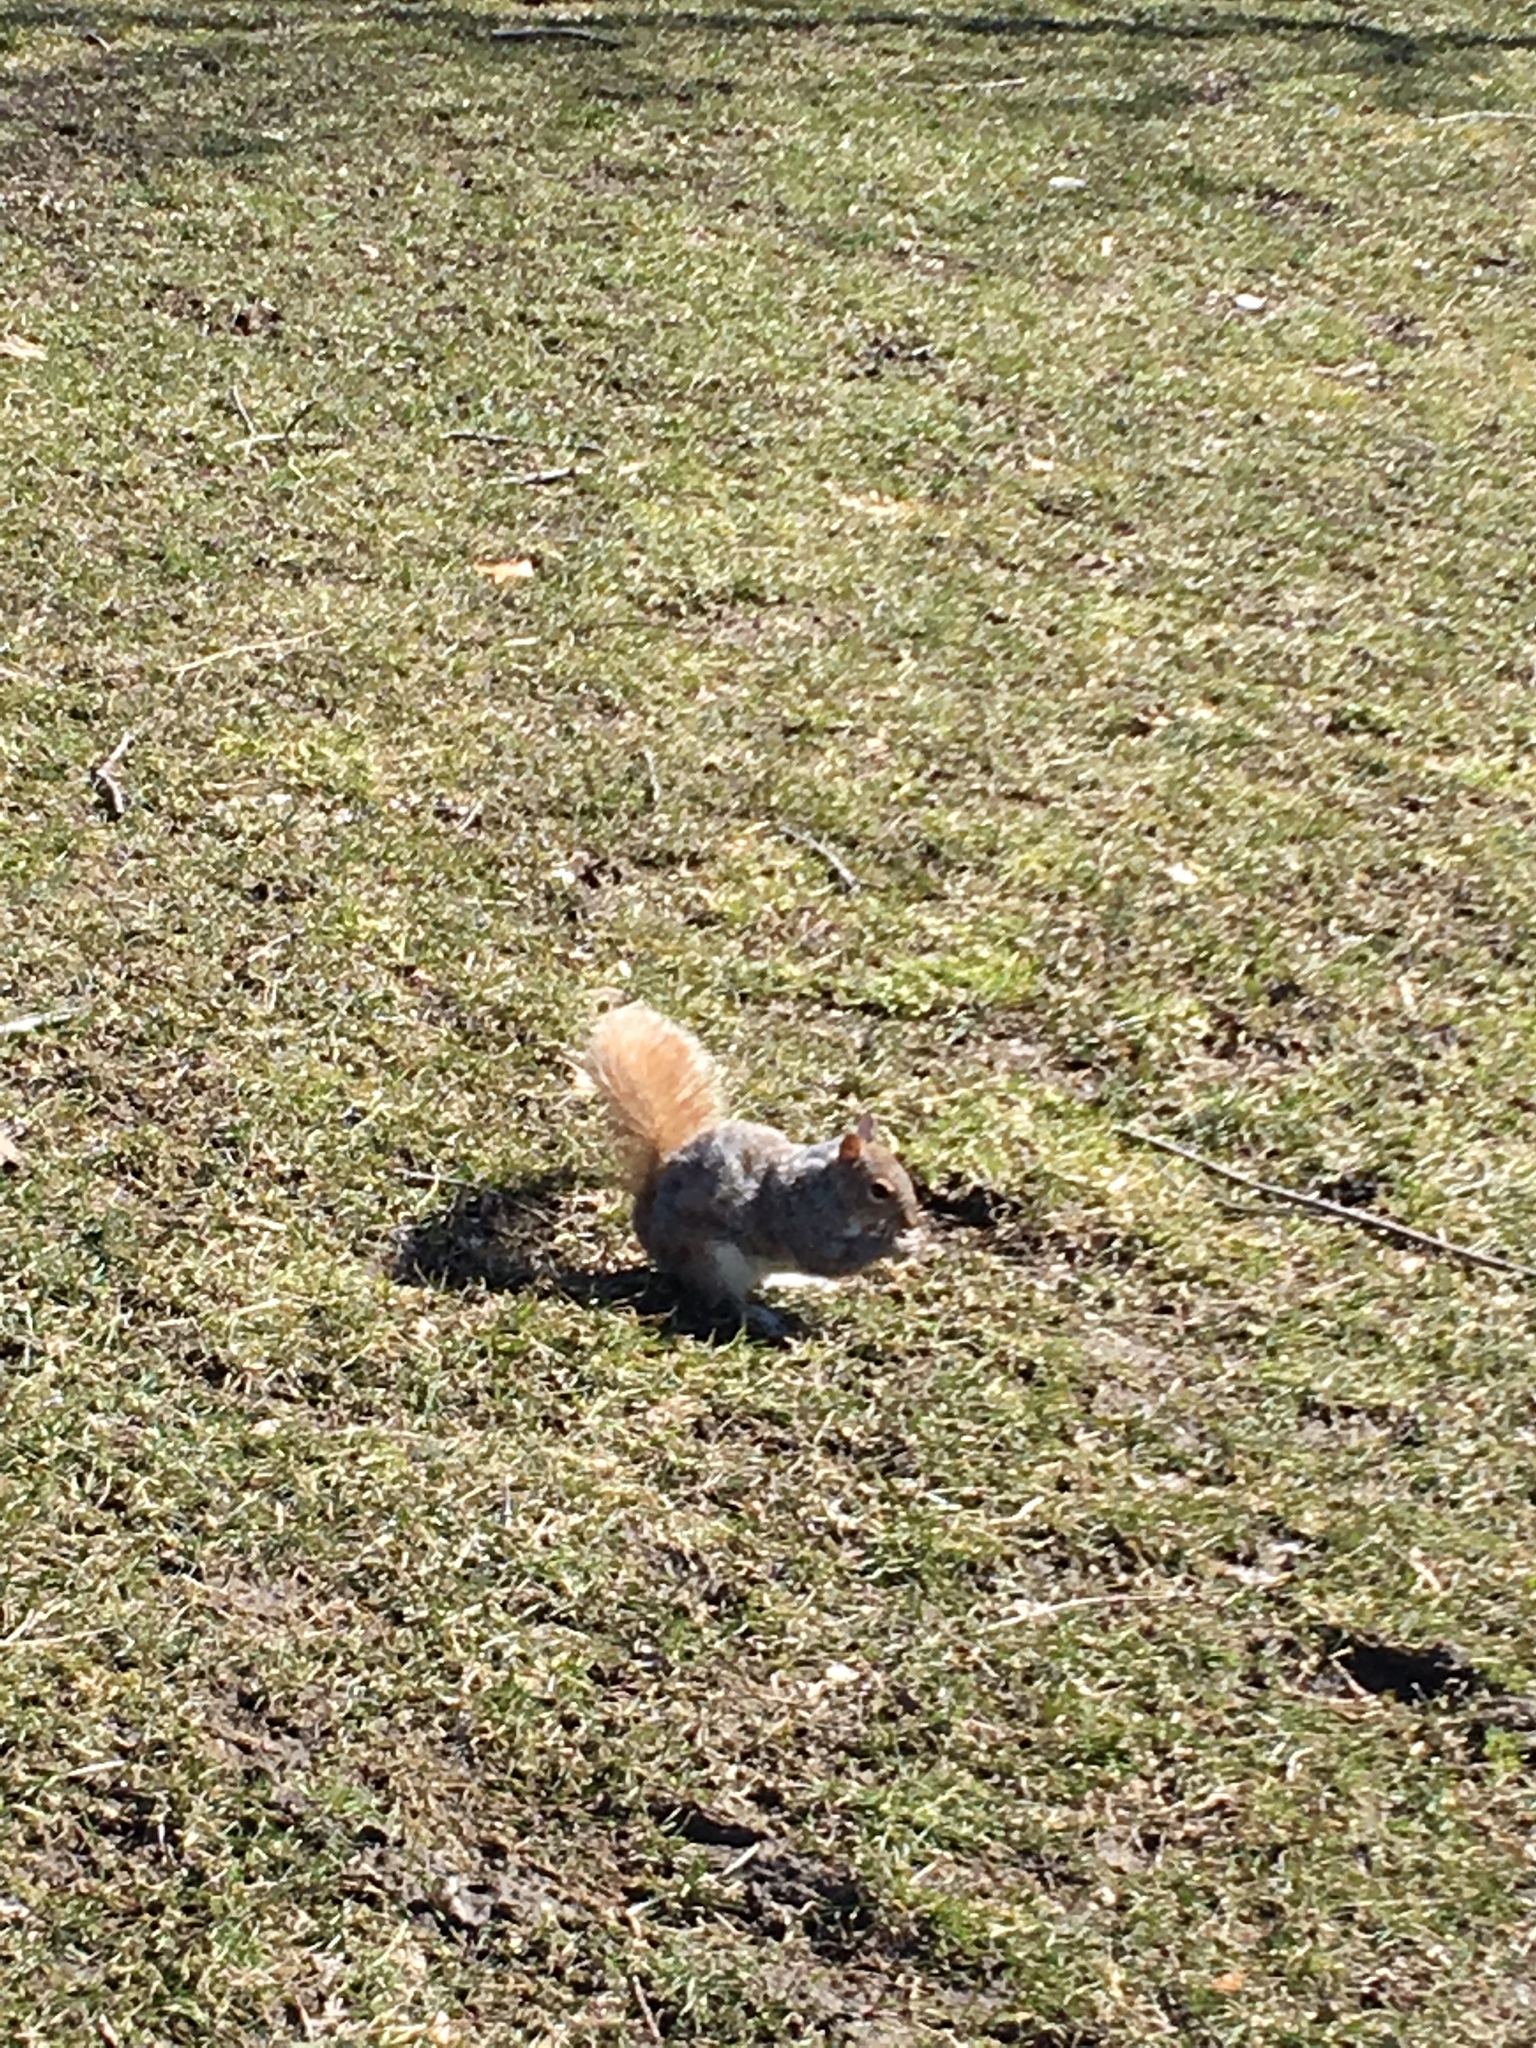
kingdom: Animalia
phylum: Chordata
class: Mammalia
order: Rodentia
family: Sciuridae
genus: Sciurus
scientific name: Sciurus carolinensis
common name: Eastern gray squirrel
